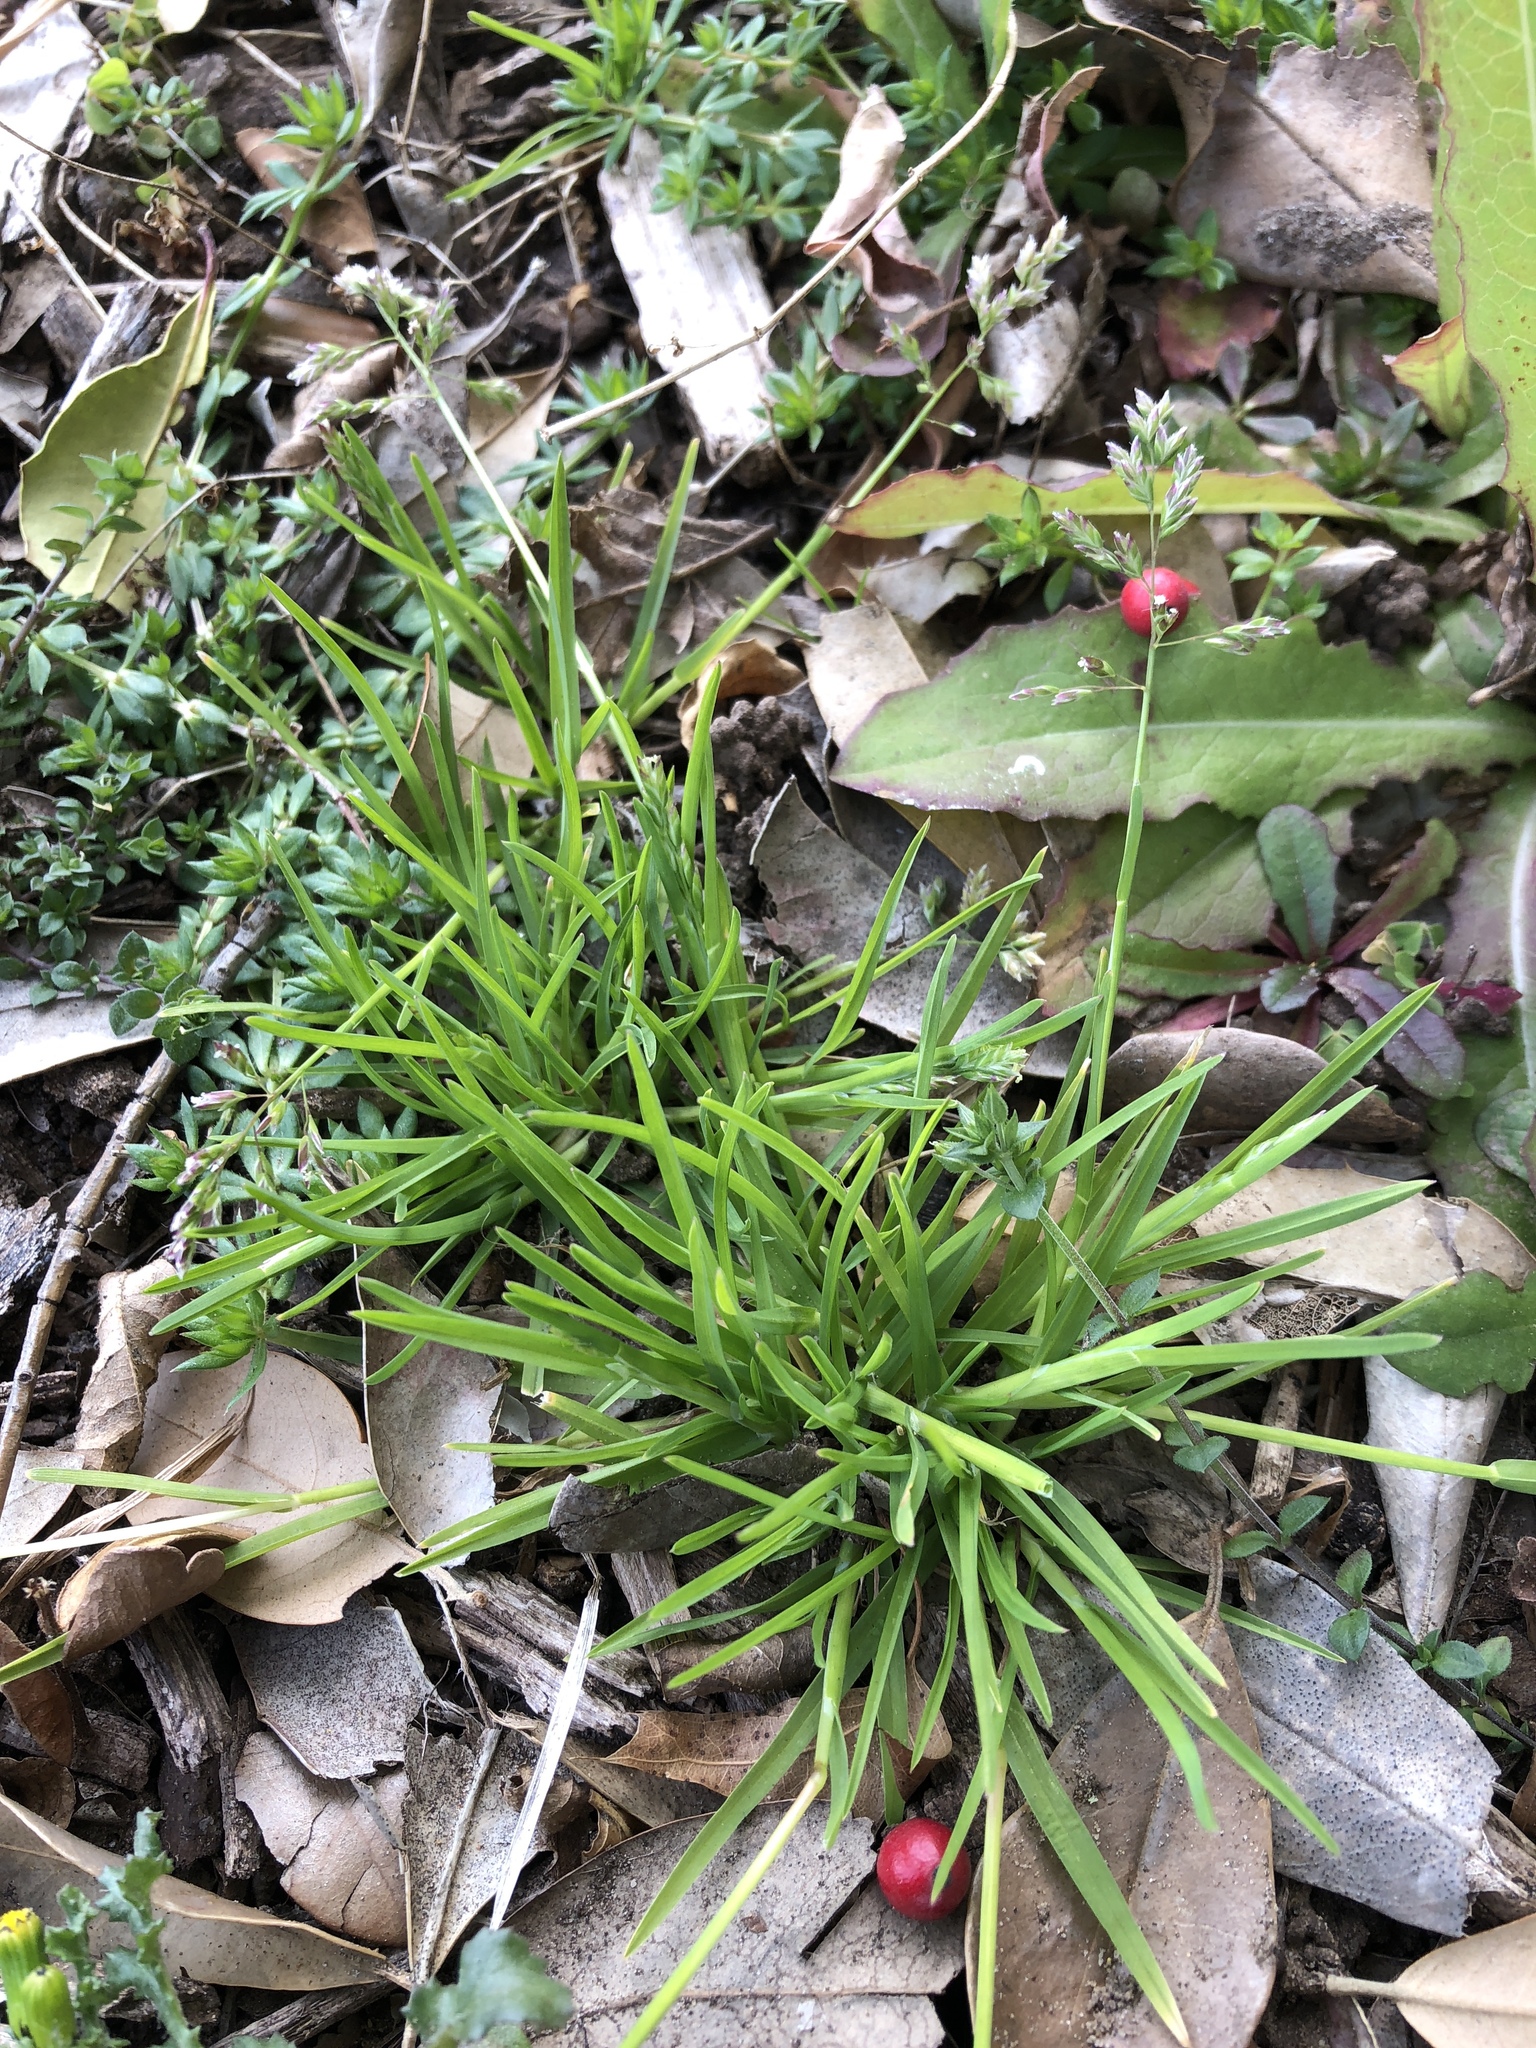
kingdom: Plantae
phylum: Tracheophyta
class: Liliopsida
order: Poales
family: Poaceae
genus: Poa
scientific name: Poa annua
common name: Annual bluegrass
